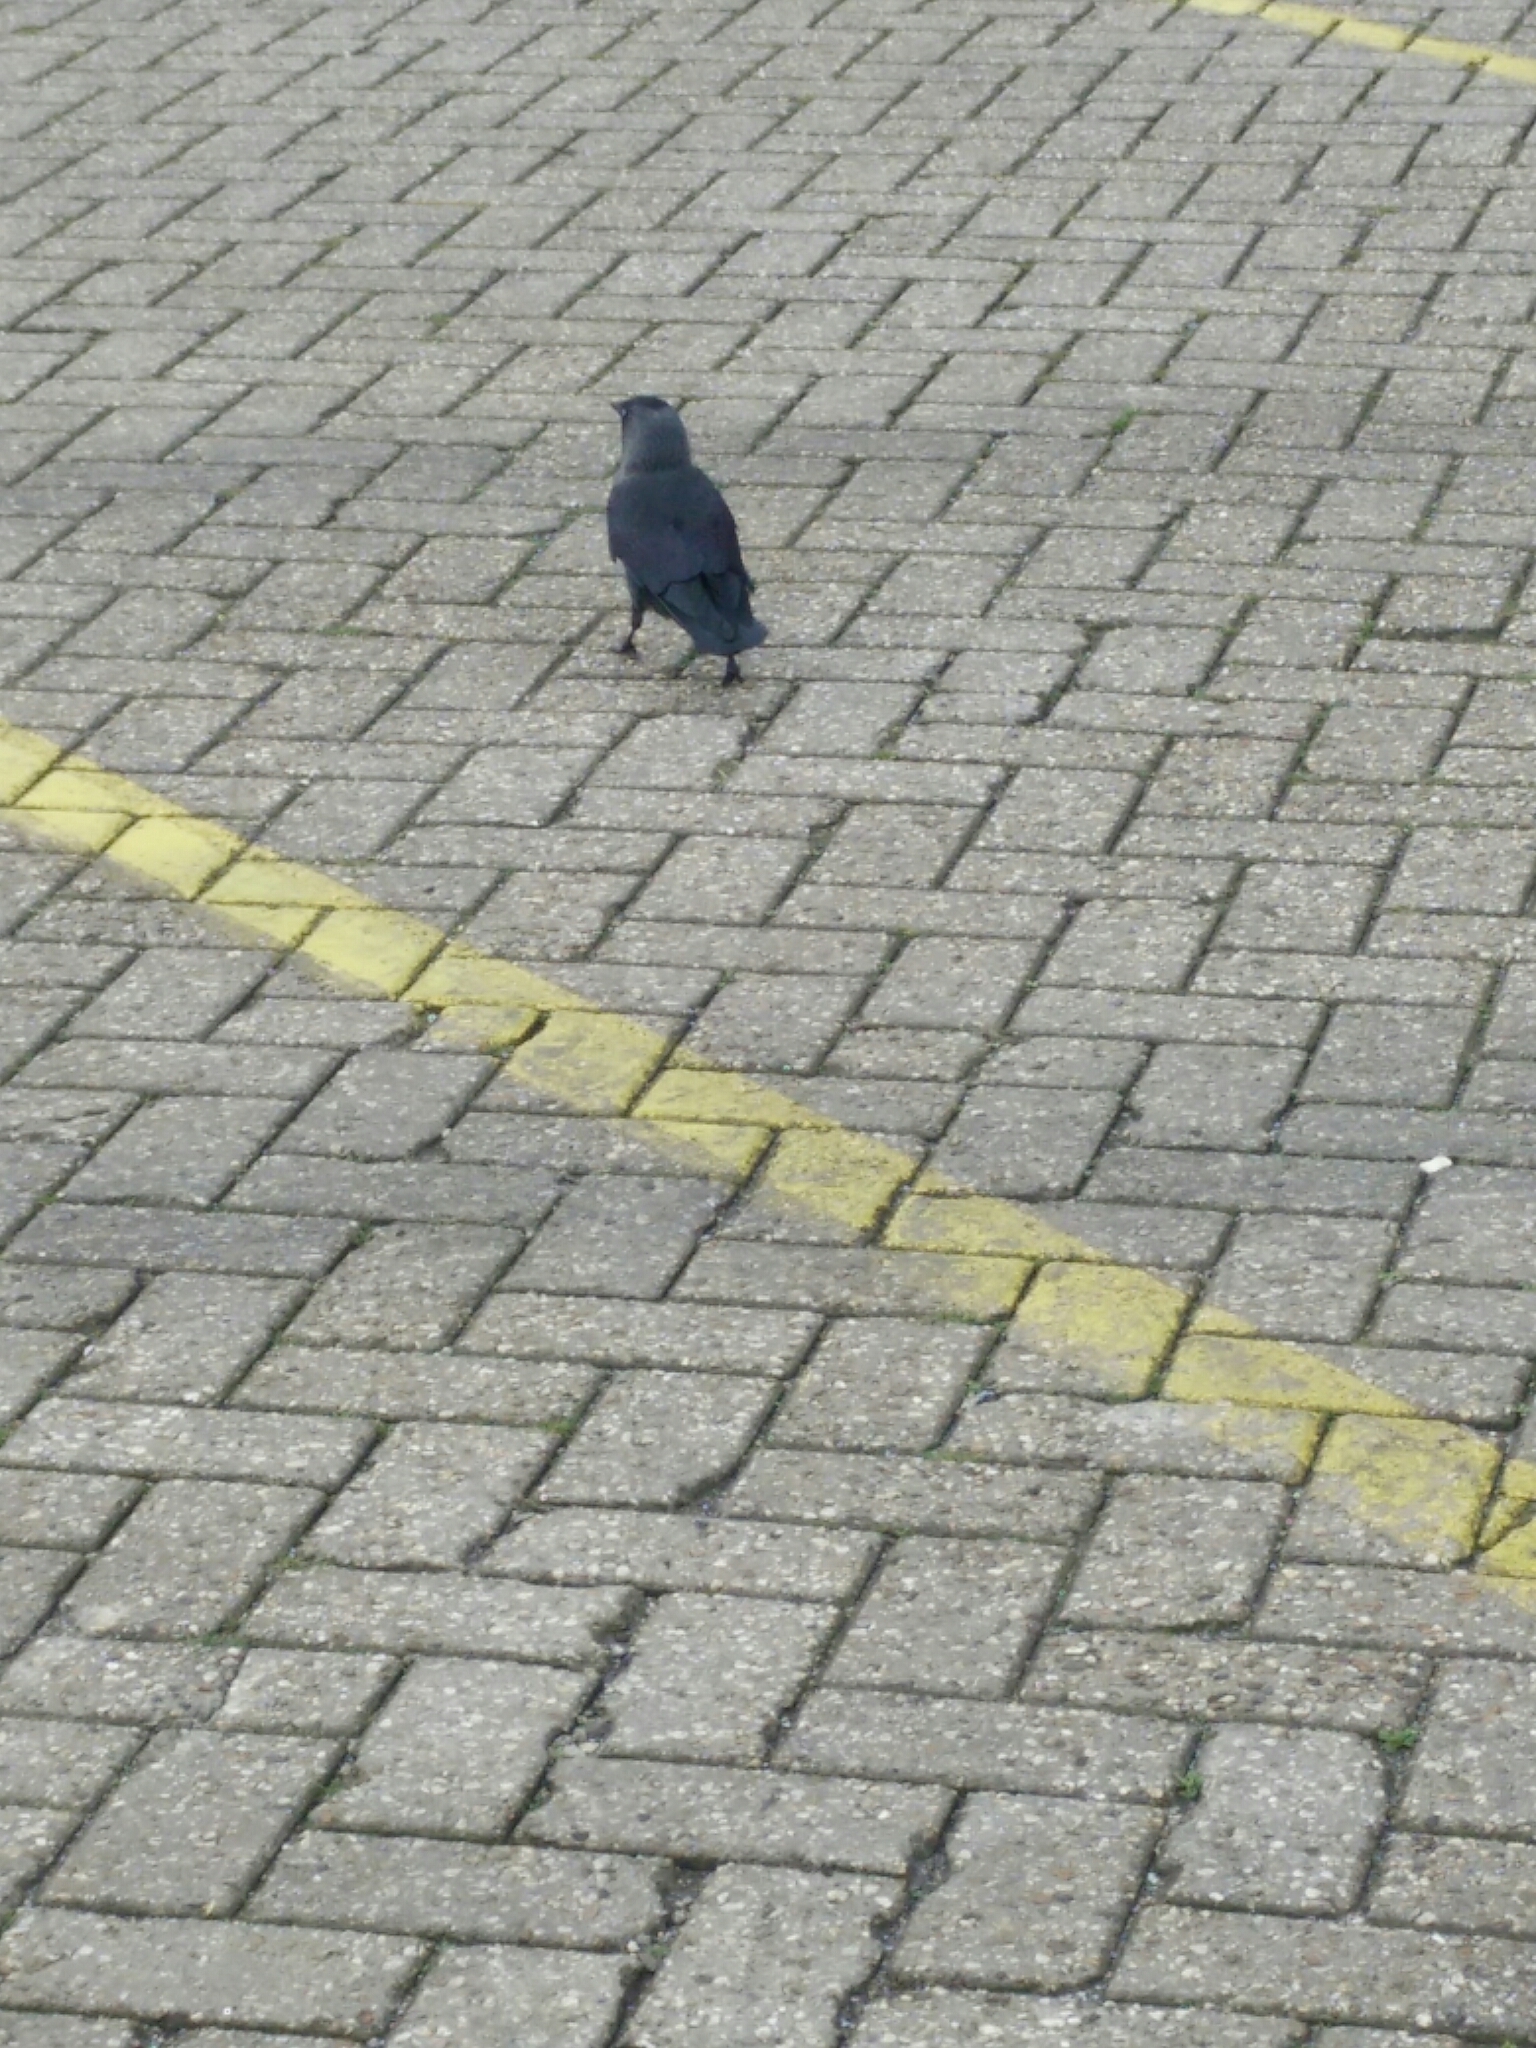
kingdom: Animalia
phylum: Chordata
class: Aves
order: Passeriformes
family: Corvidae
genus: Coloeus
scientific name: Coloeus monedula
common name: Western jackdaw
